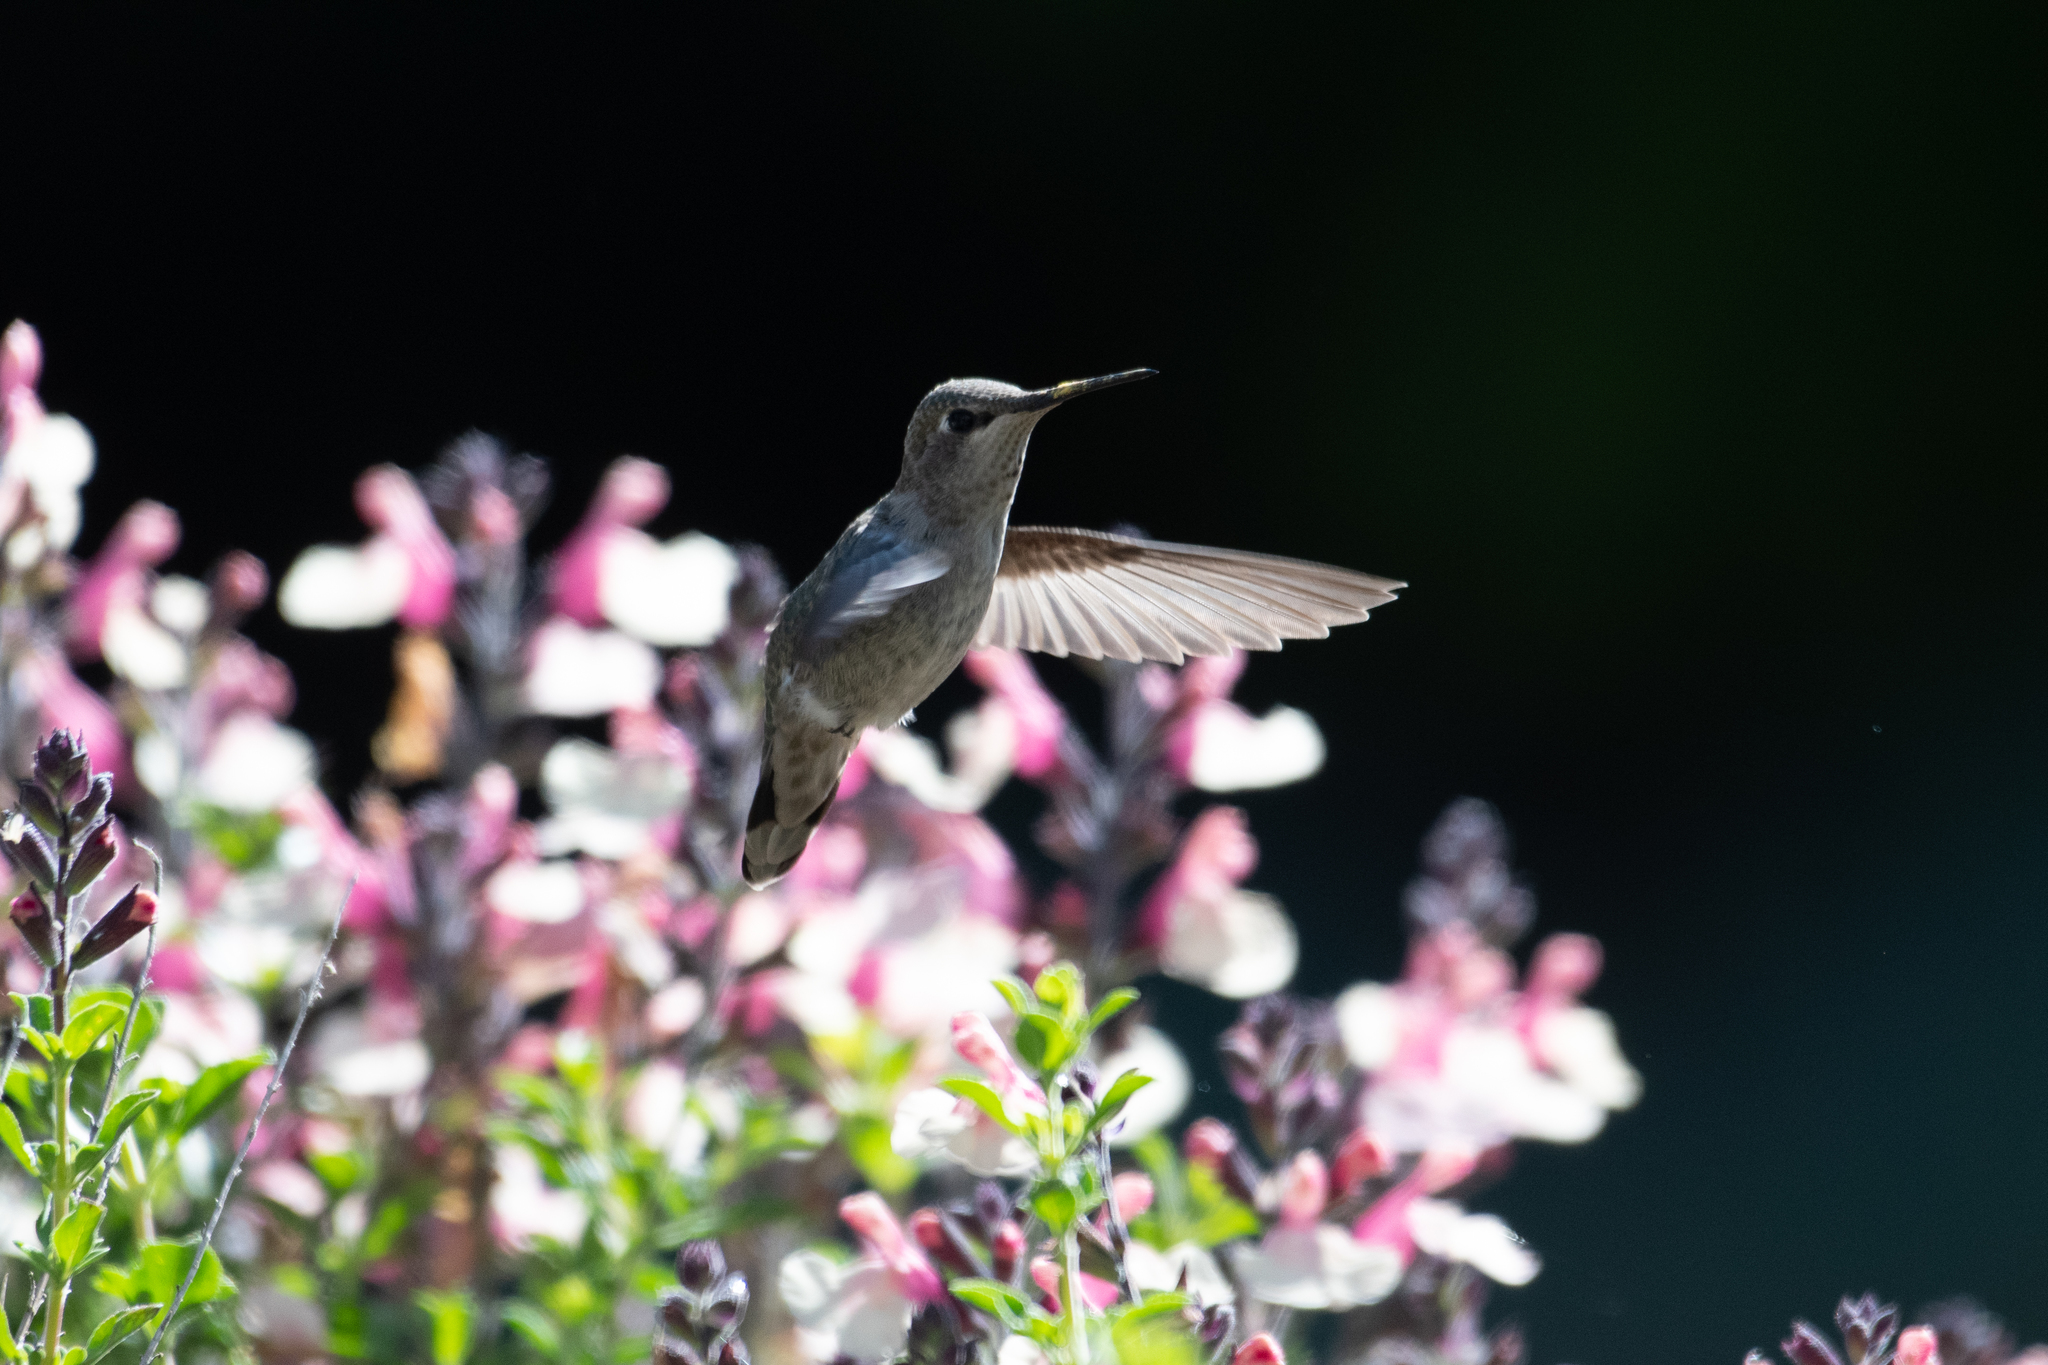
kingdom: Animalia
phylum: Chordata
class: Aves
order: Apodiformes
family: Trochilidae
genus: Calypte
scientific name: Calypte anna
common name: Anna's hummingbird
